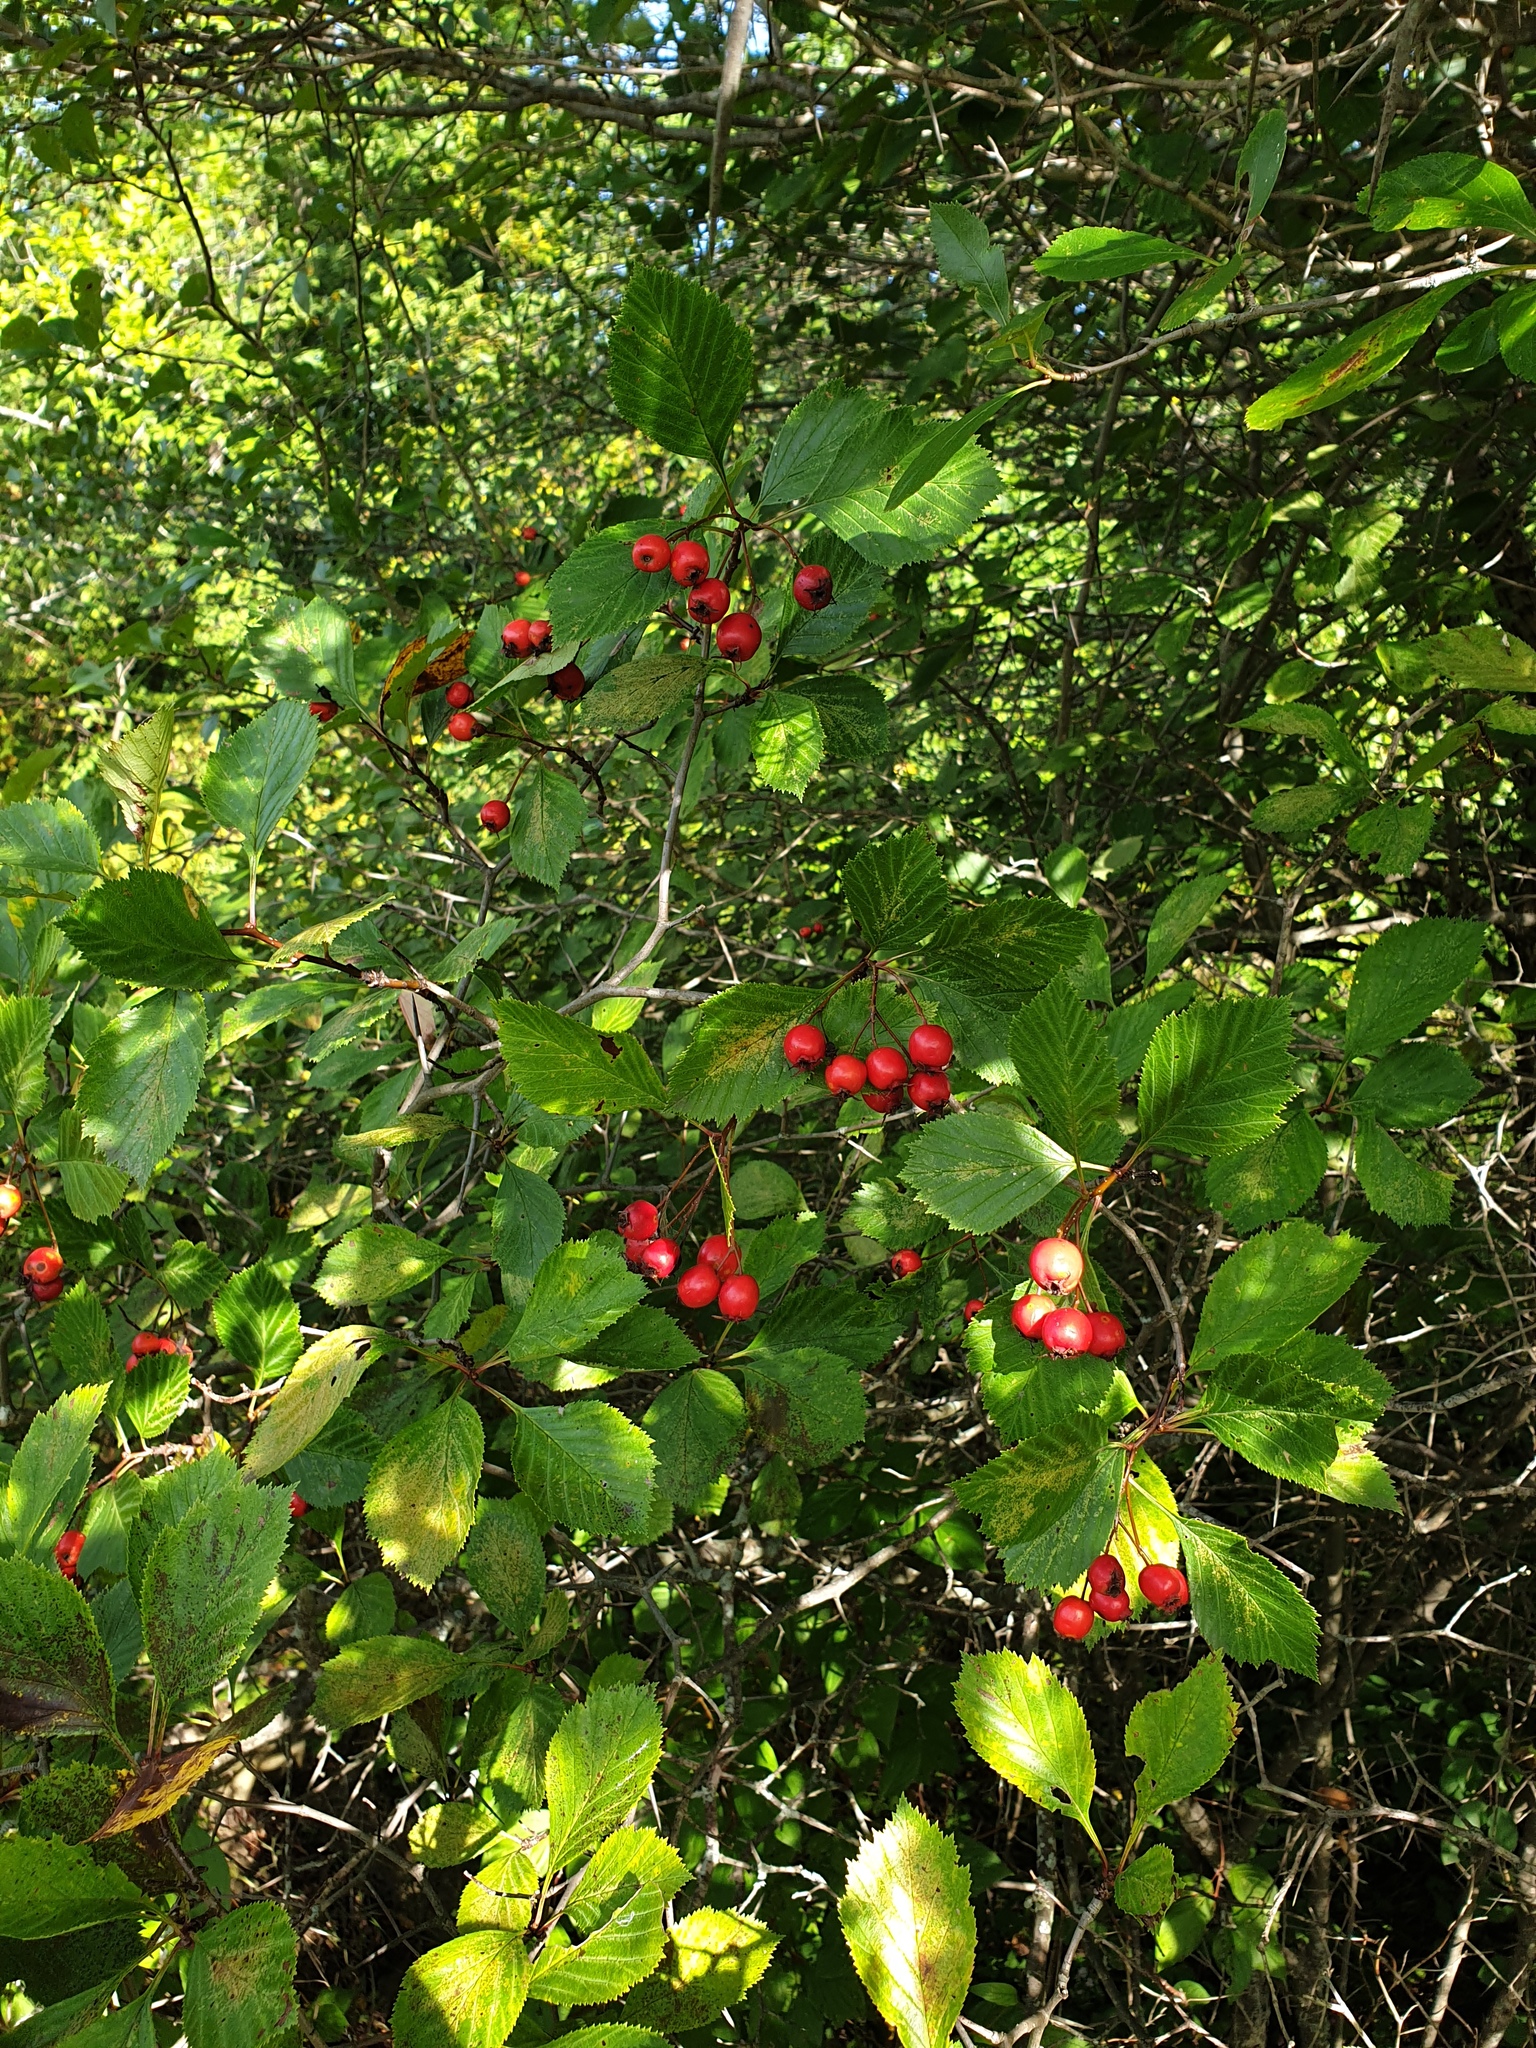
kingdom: Plantae
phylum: Tracheophyta
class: Magnoliopsida
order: Rosales
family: Rosaceae
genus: Crataegus
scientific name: Crataegus macracantha
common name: Large-thorn hawthorn
